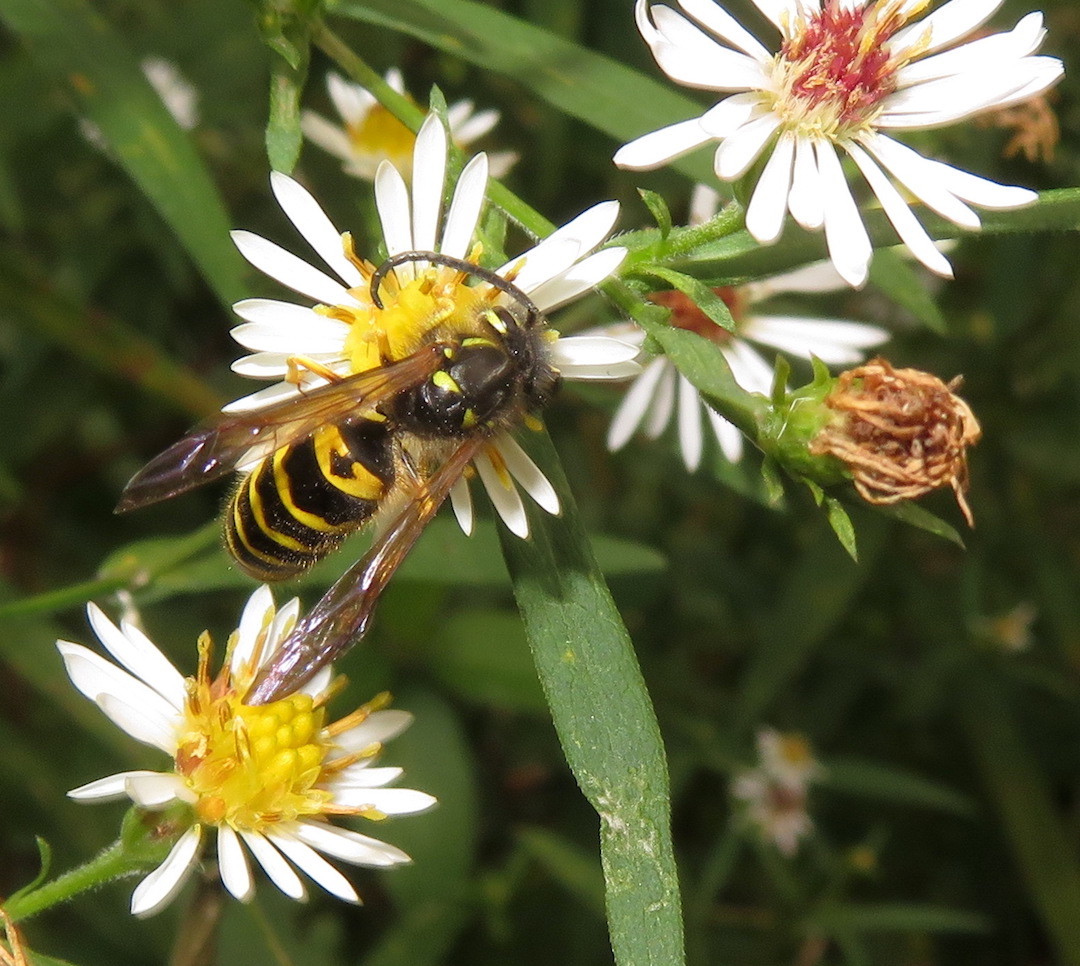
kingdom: Animalia
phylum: Arthropoda
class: Insecta
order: Hymenoptera
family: Vespidae
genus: Vespula
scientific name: Vespula maculifrons
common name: Eastern yellowjacket
